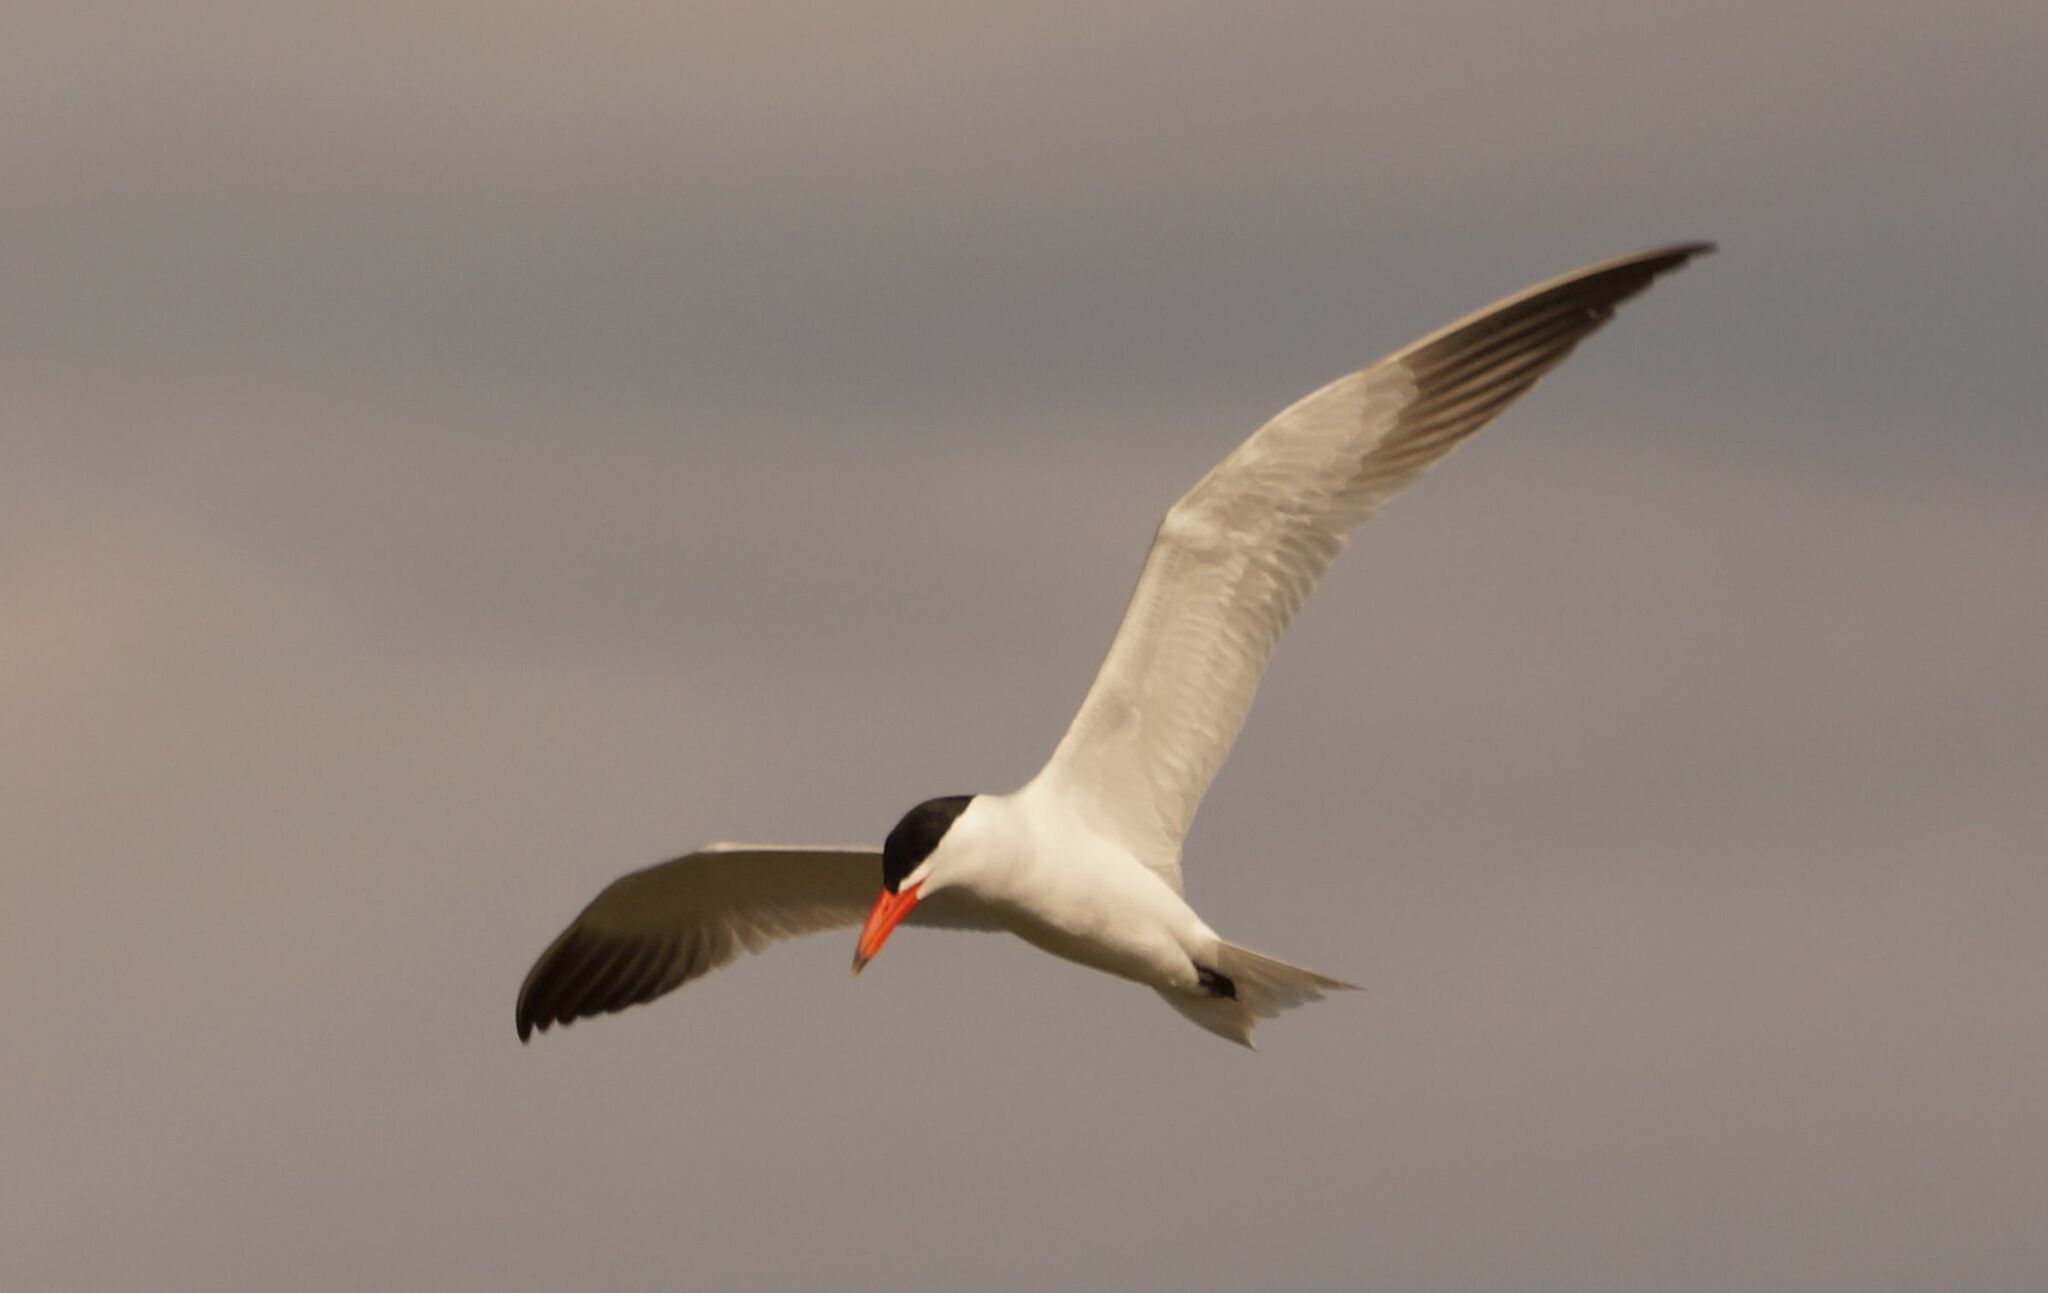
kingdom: Animalia
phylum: Chordata
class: Aves
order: Charadriiformes
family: Laridae
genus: Hydroprogne
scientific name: Hydroprogne caspia
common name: Caspian tern
